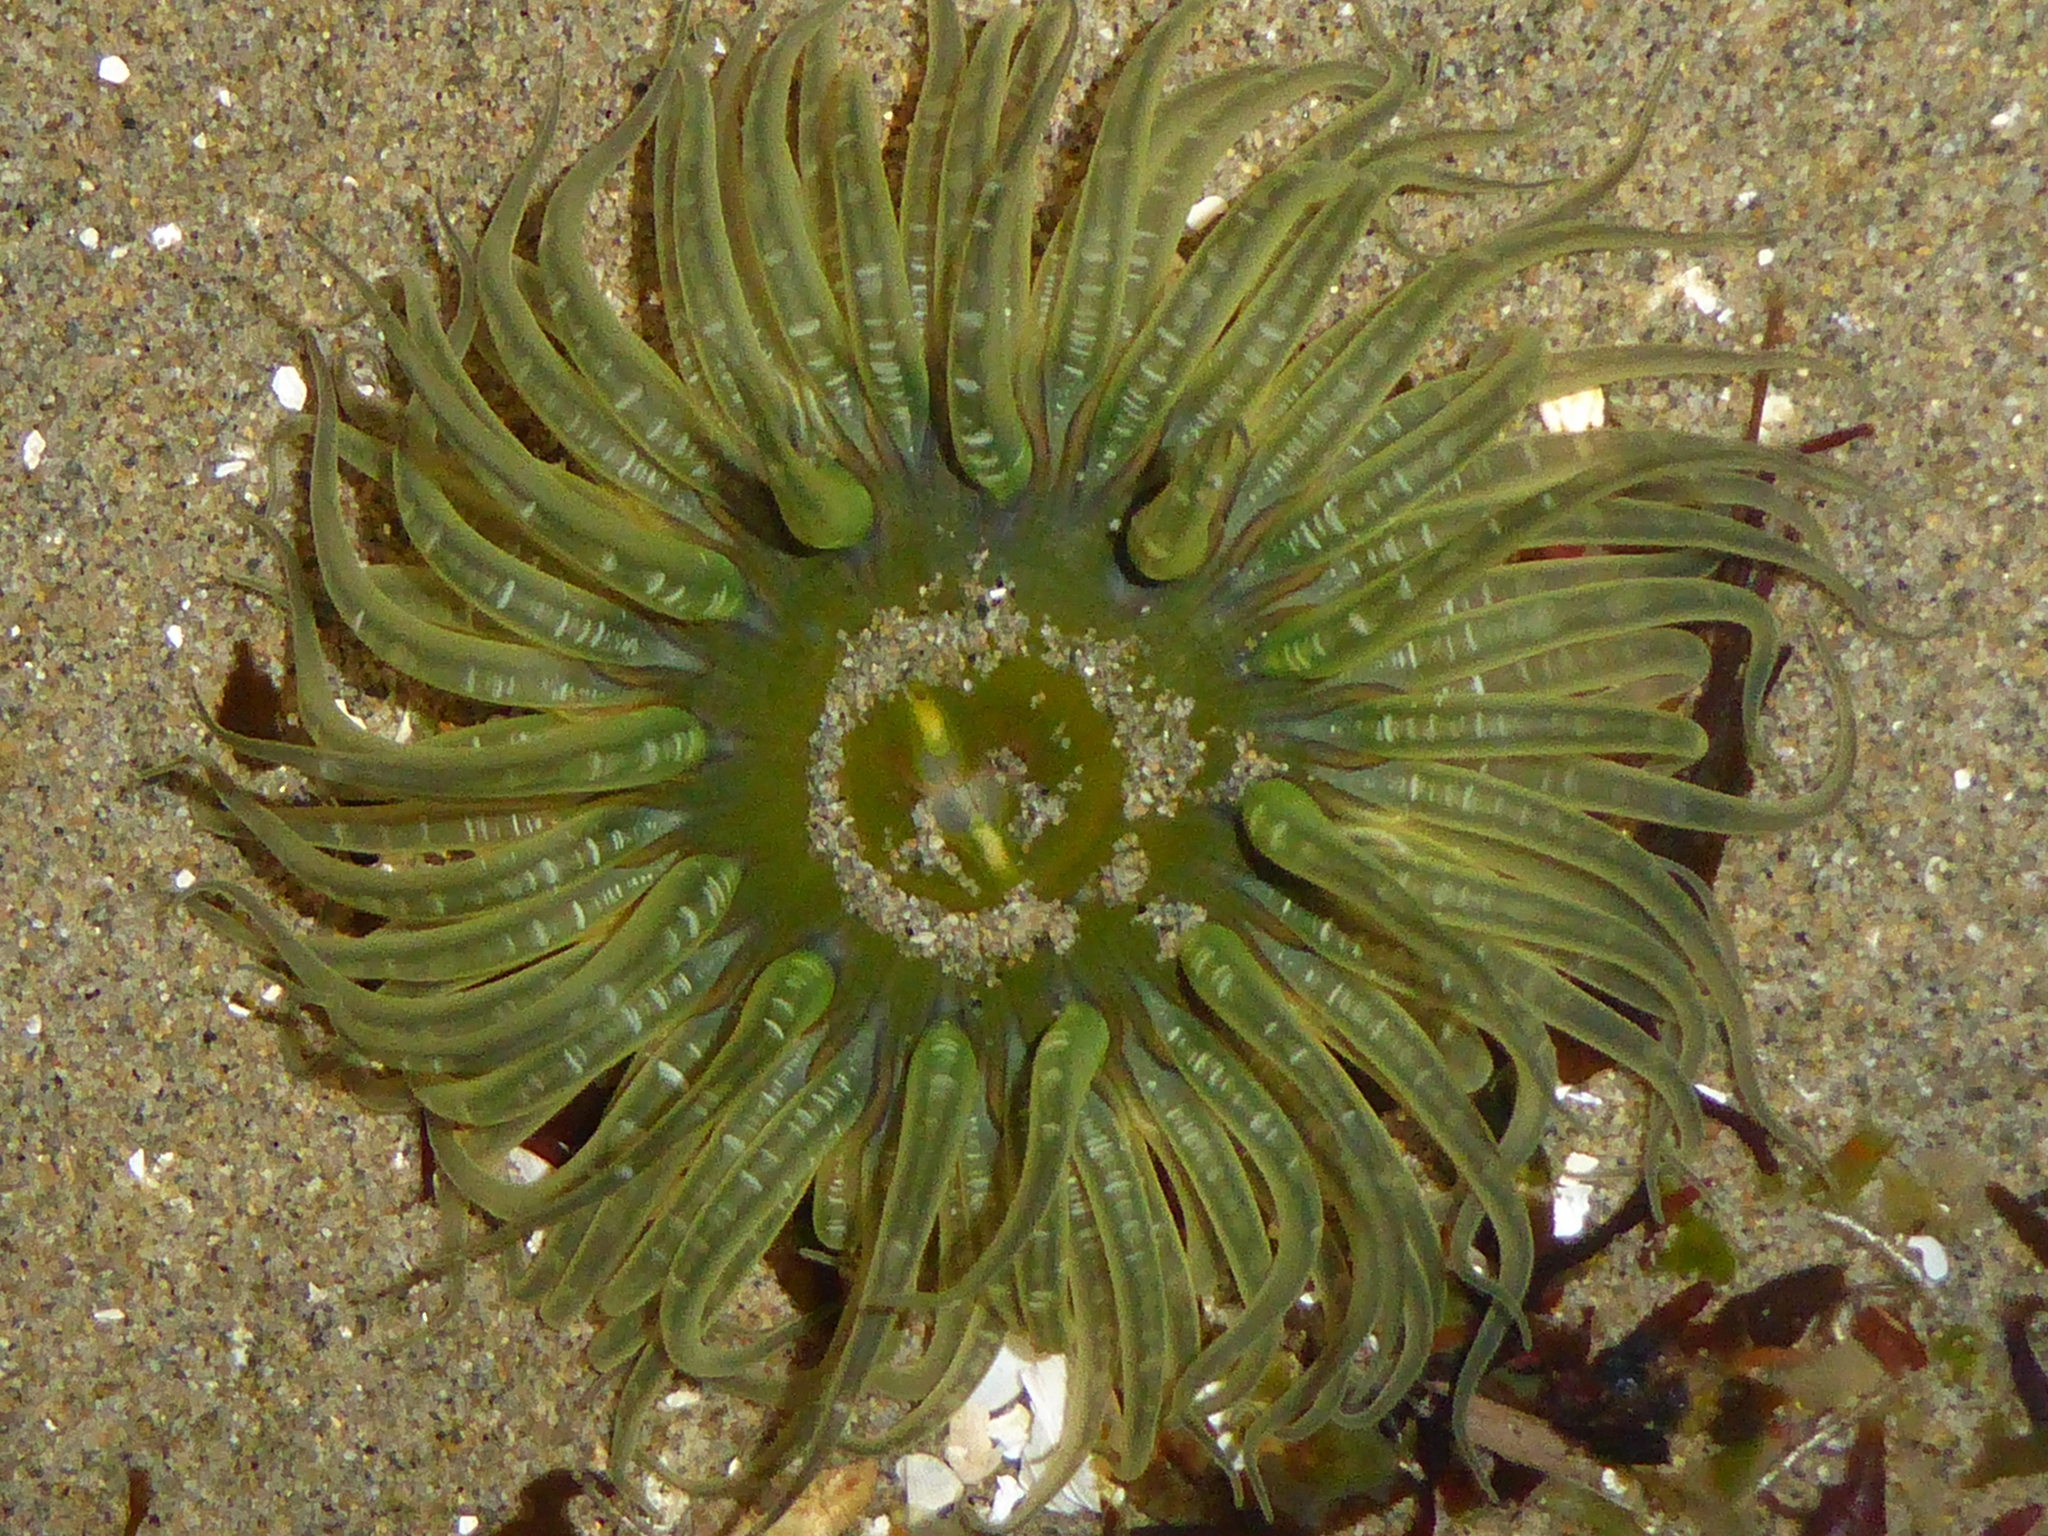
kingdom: Animalia
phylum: Cnidaria
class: Anthozoa
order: Actiniaria
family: Actiniidae
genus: Anthopleura
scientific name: Anthopleura artemisia
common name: Buried sea anemone
